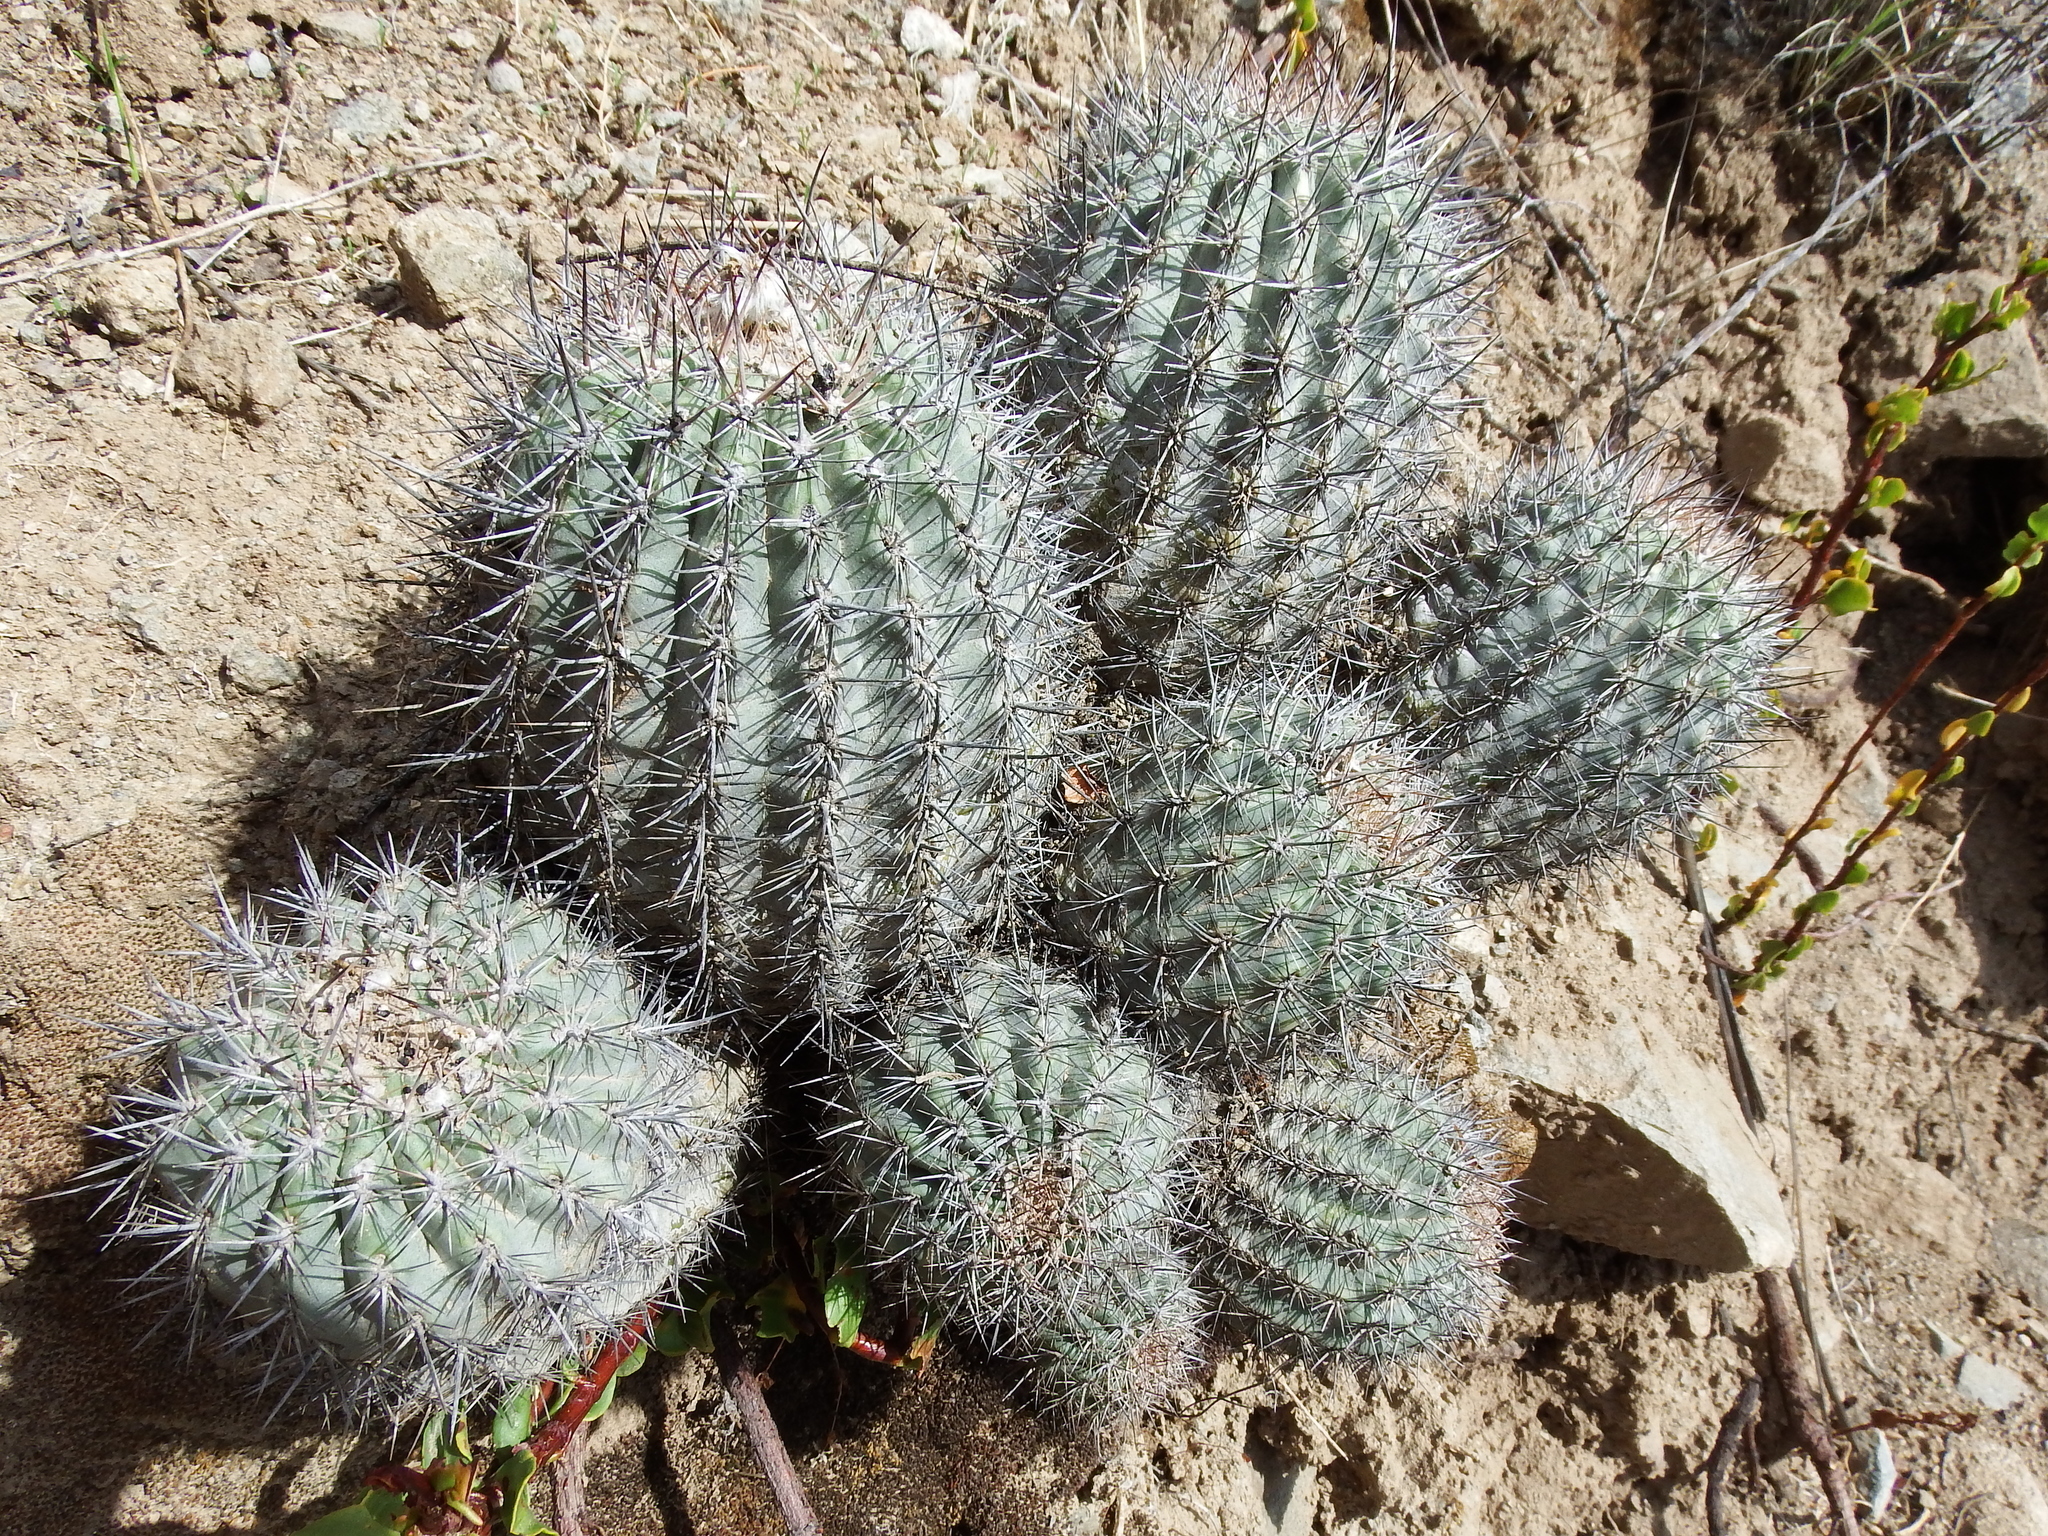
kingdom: Plantae
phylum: Tracheophyta
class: Magnoliopsida
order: Caryophyllales
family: Cactaceae
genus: Oreocereus
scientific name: Oreocereus hempelianus
